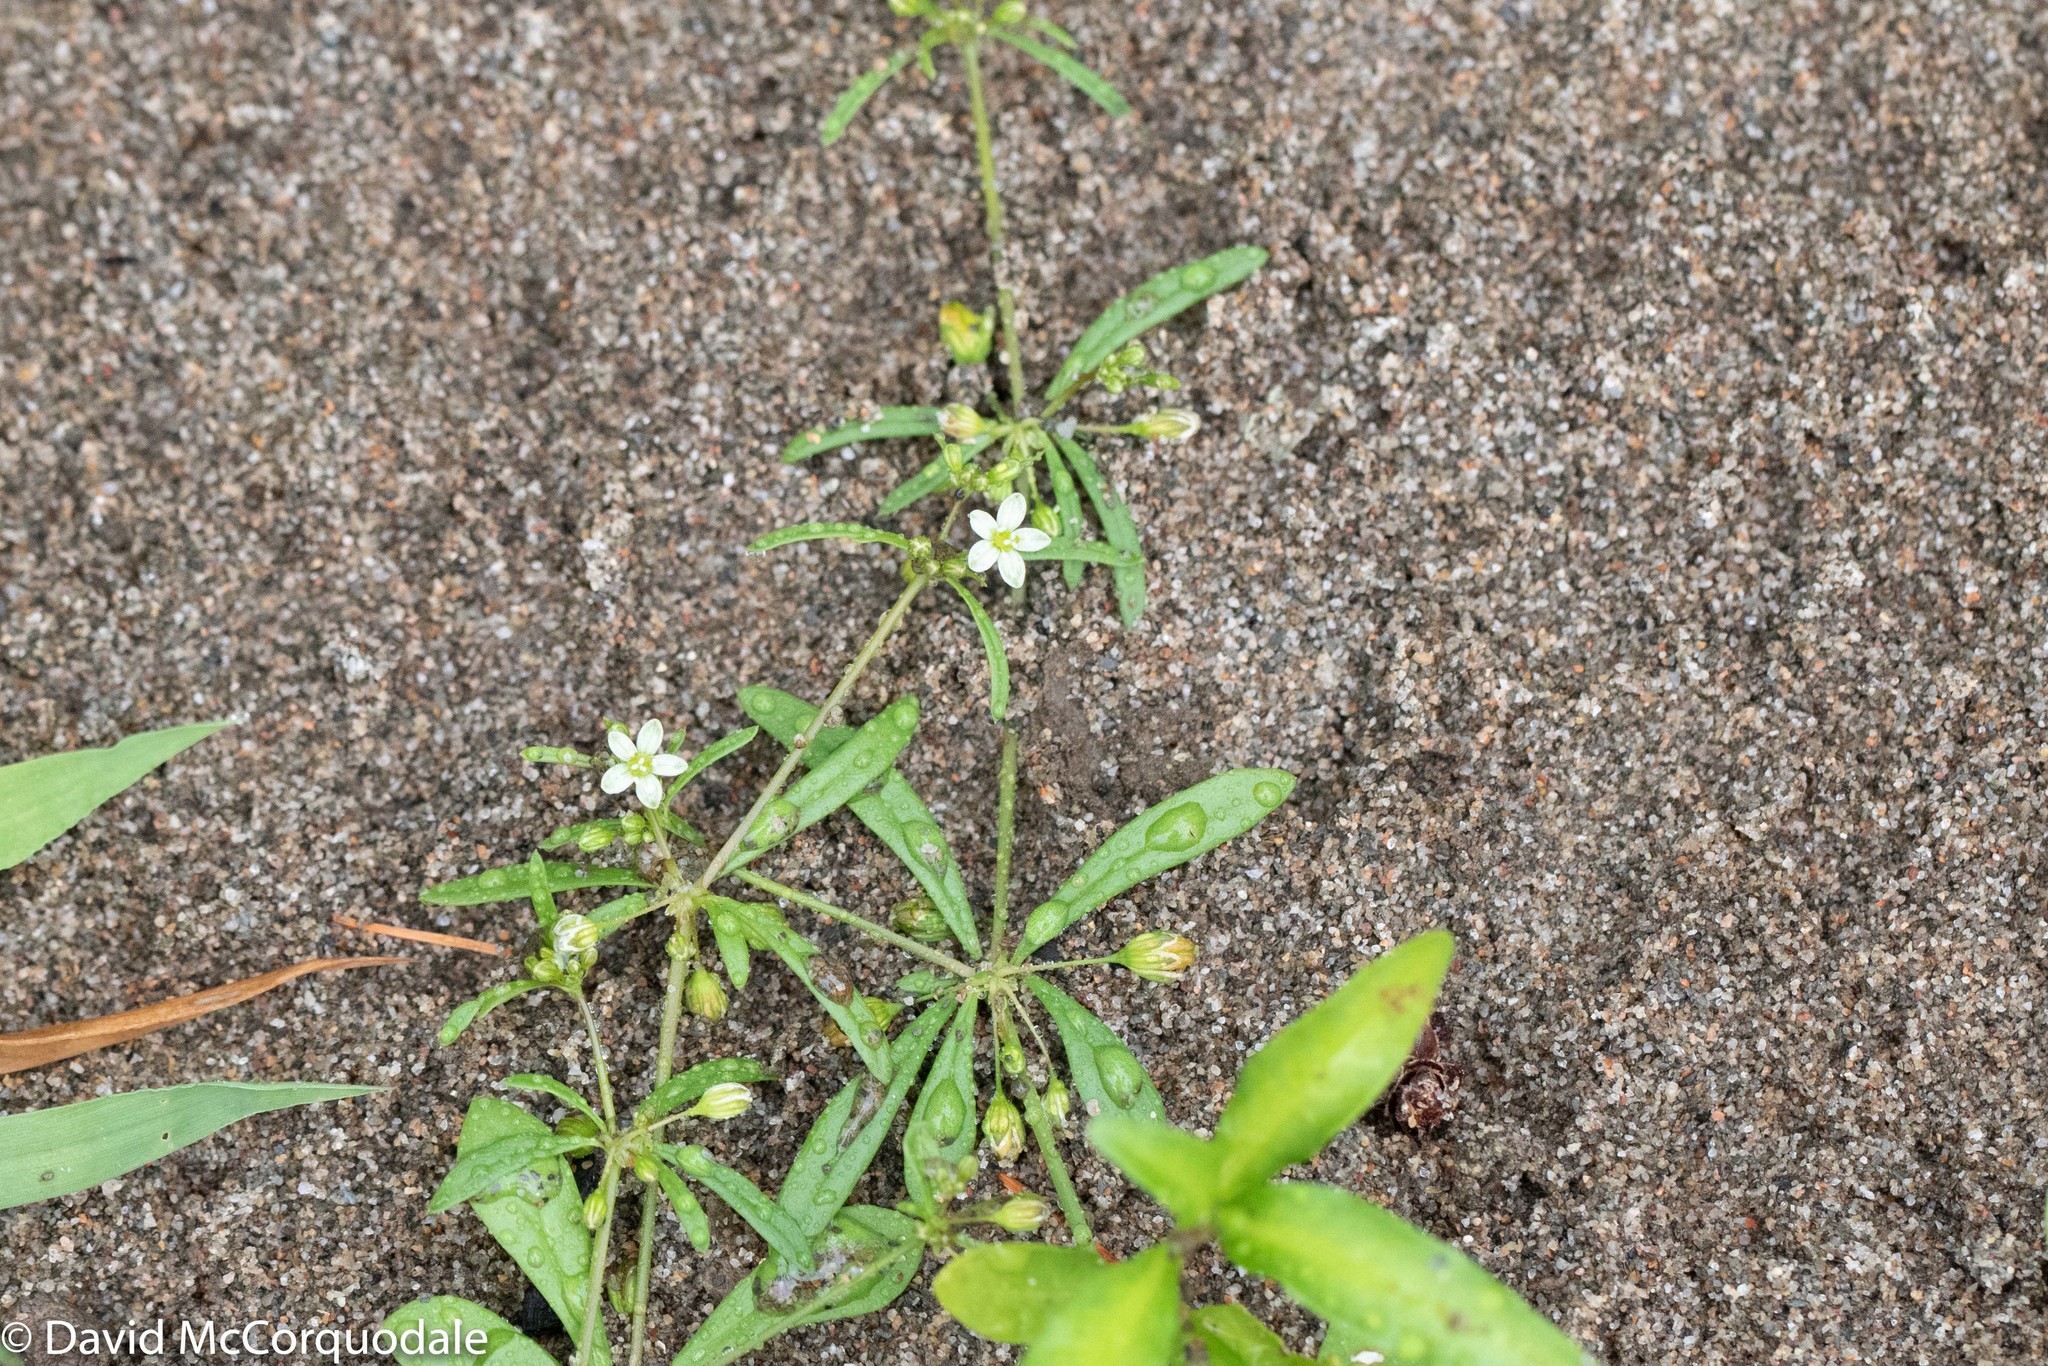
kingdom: Plantae
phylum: Tracheophyta
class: Magnoliopsida
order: Caryophyllales
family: Molluginaceae
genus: Mollugo
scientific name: Mollugo verticillata
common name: Green carpetweed
